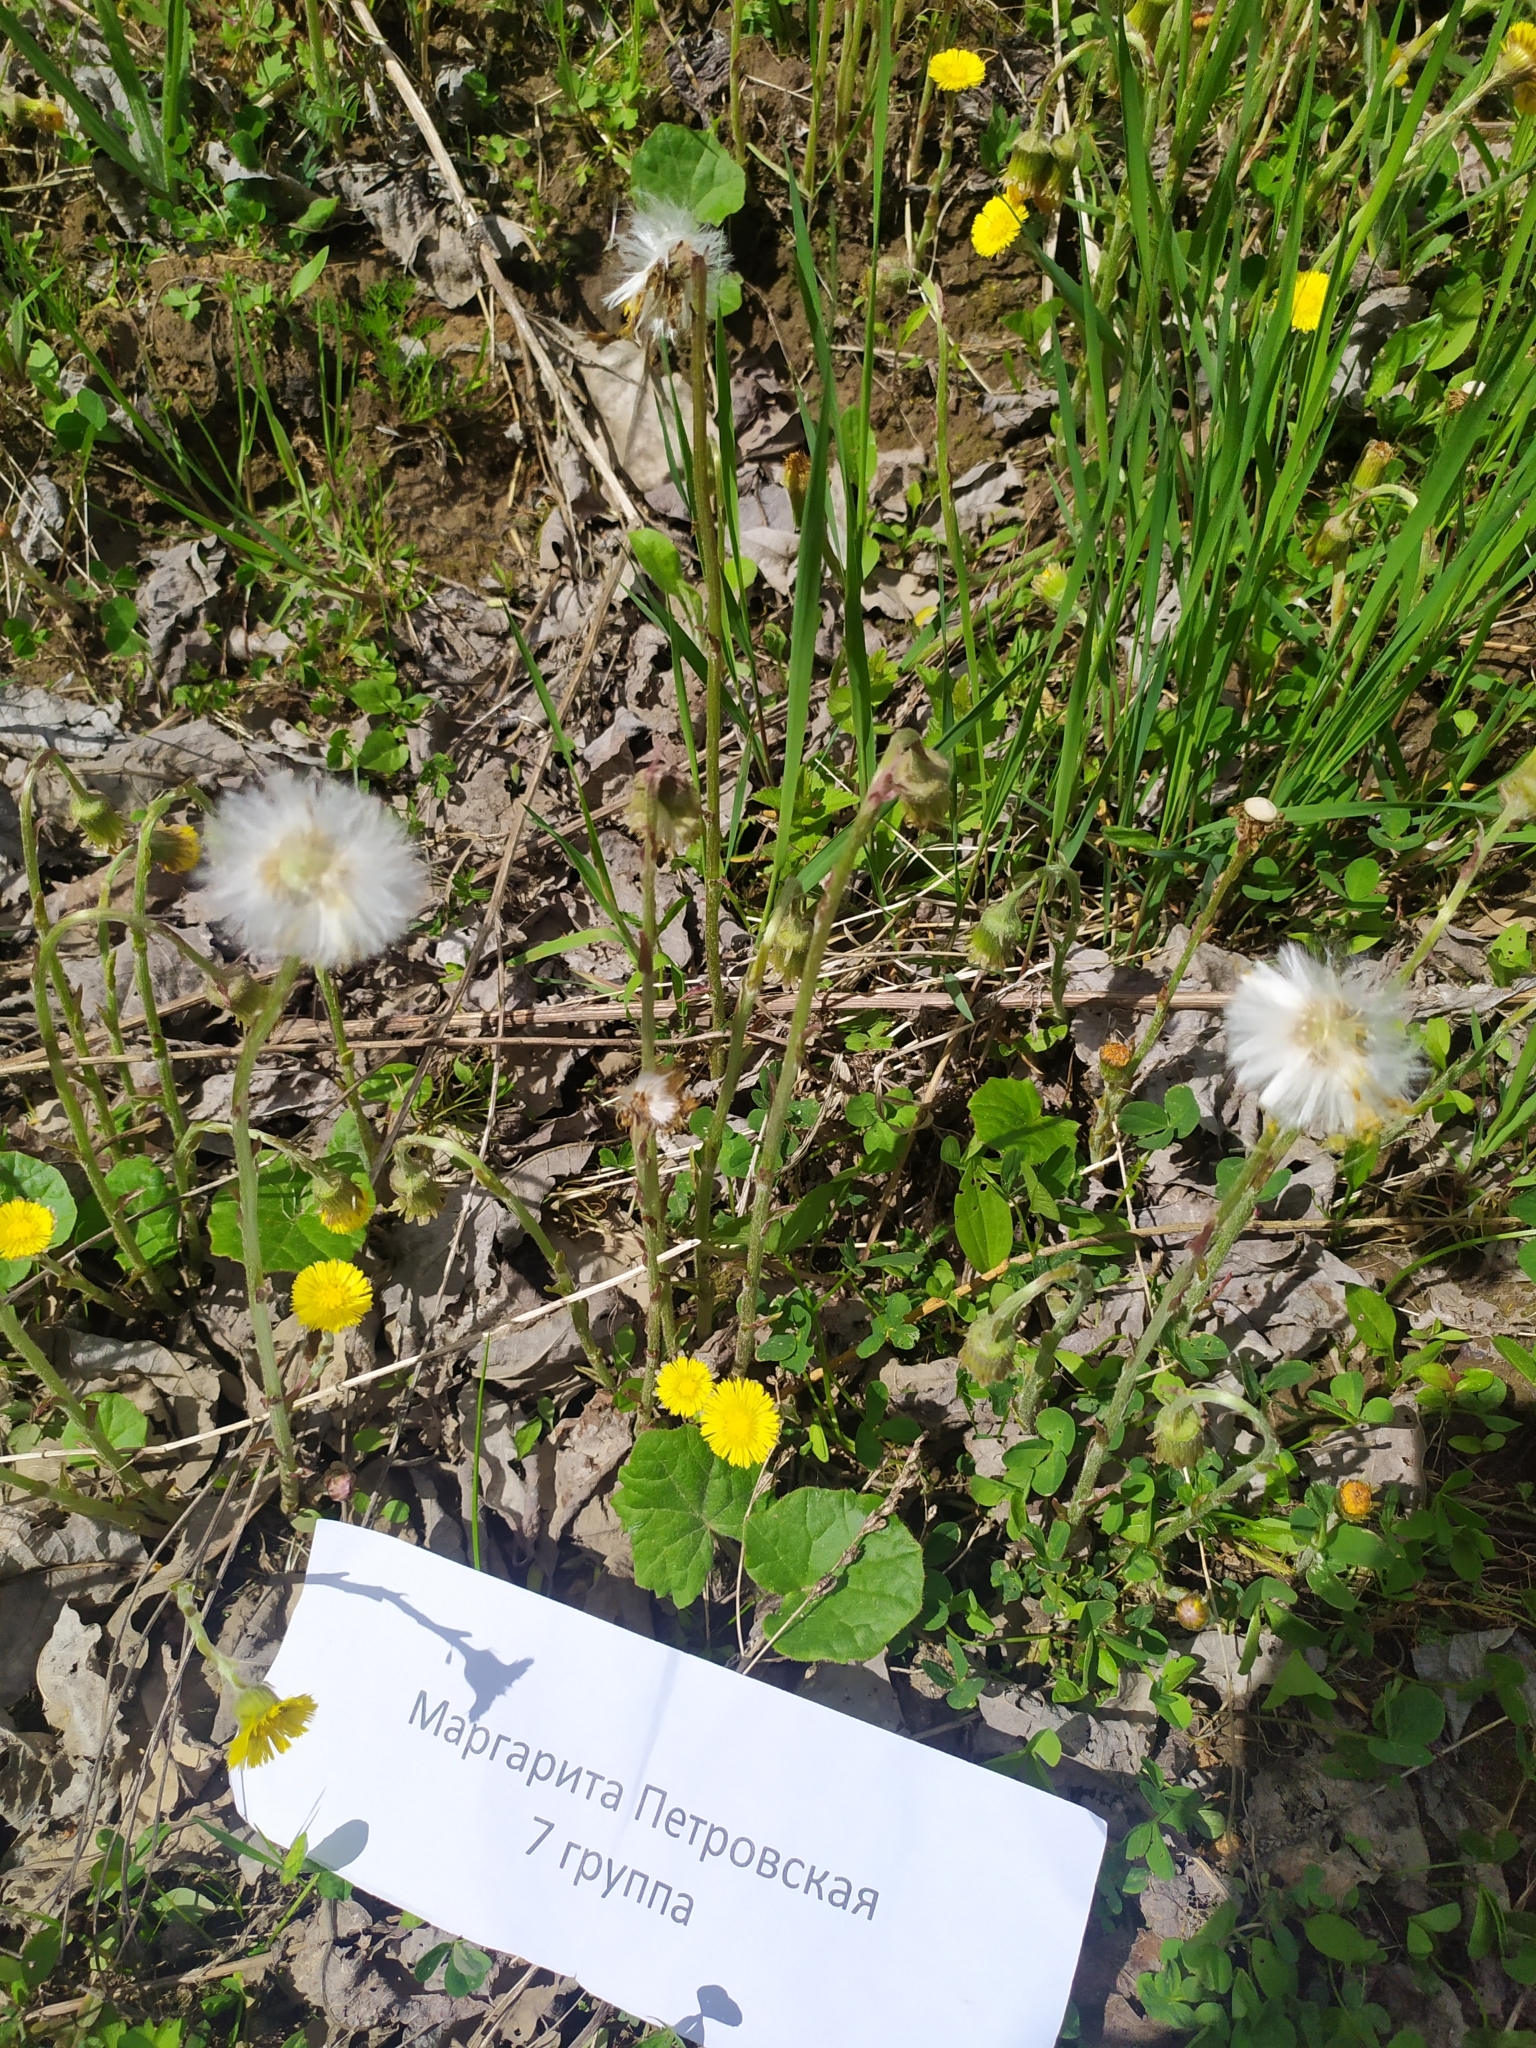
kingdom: Plantae
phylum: Tracheophyta
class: Magnoliopsida
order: Asterales
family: Asteraceae
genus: Tussilago
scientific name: Tussilago farfara
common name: Coltsfoot
